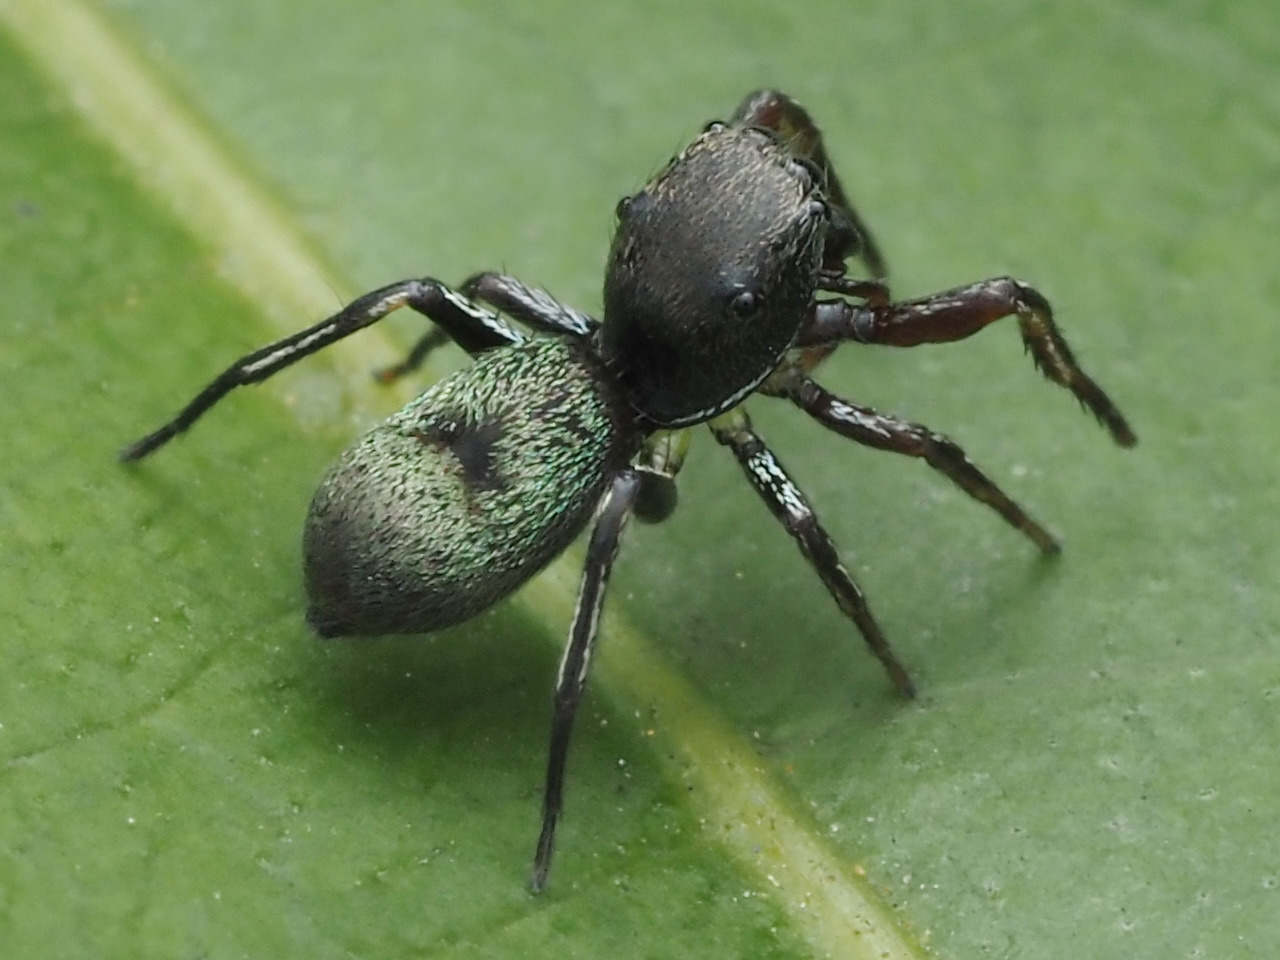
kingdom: Animalia
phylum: Arthropoda
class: Arachnida
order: Araneae
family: Salticidae
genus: Uluella
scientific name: Uluella formosa
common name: Jumping spiders
